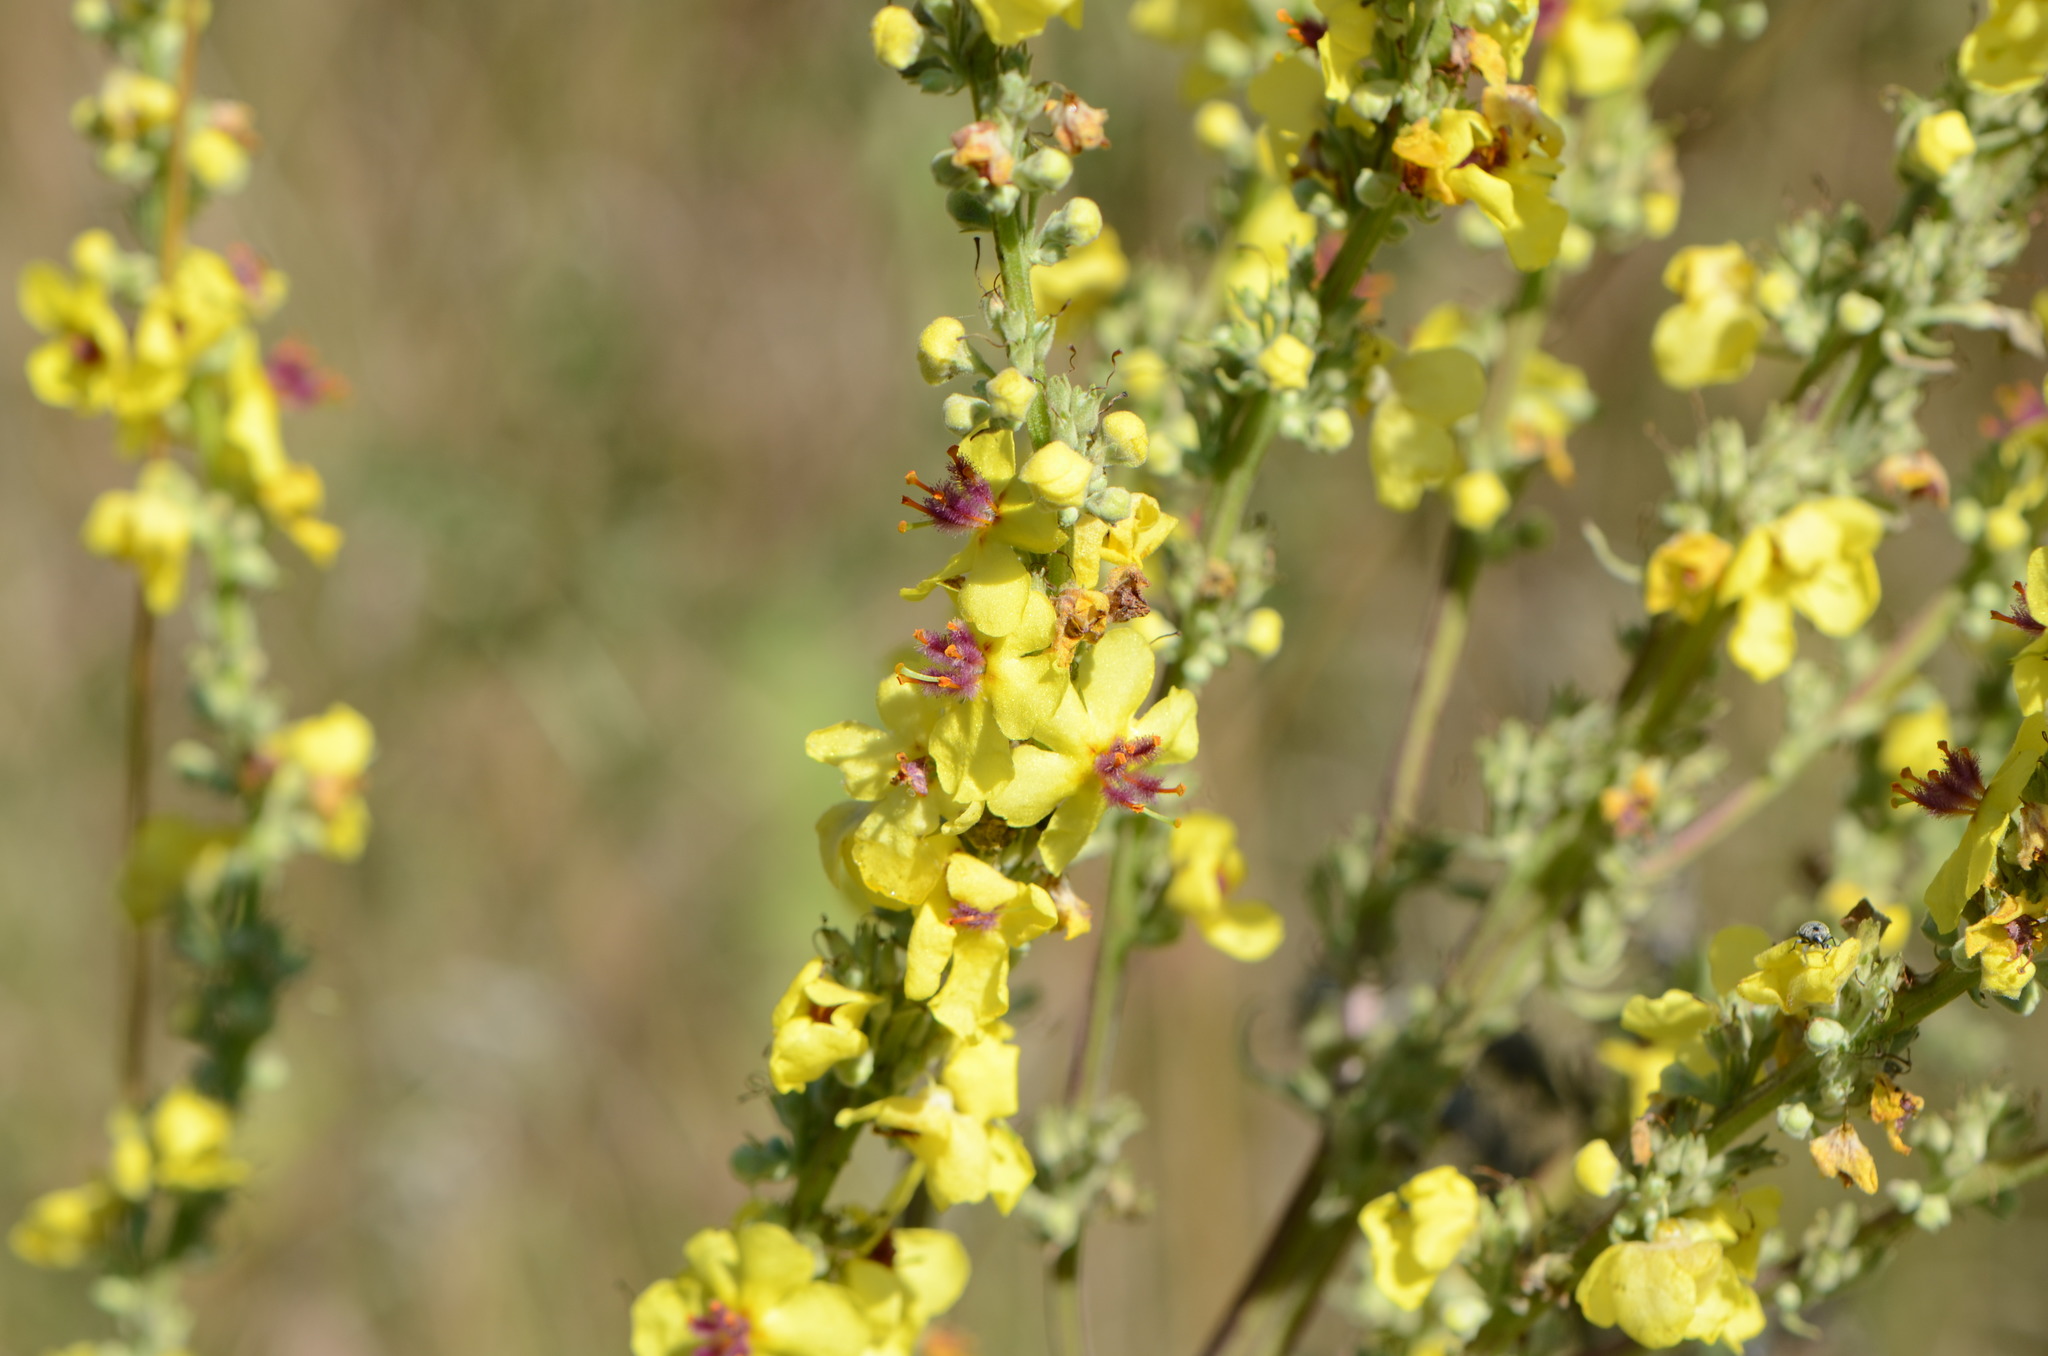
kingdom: Plantae
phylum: Tracheophyta
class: Magnoliopsida
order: Lamiales
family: Scrophulariaceae
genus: Verbascum
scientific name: Verbascum chaixii
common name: Nettle-leaved mullein
